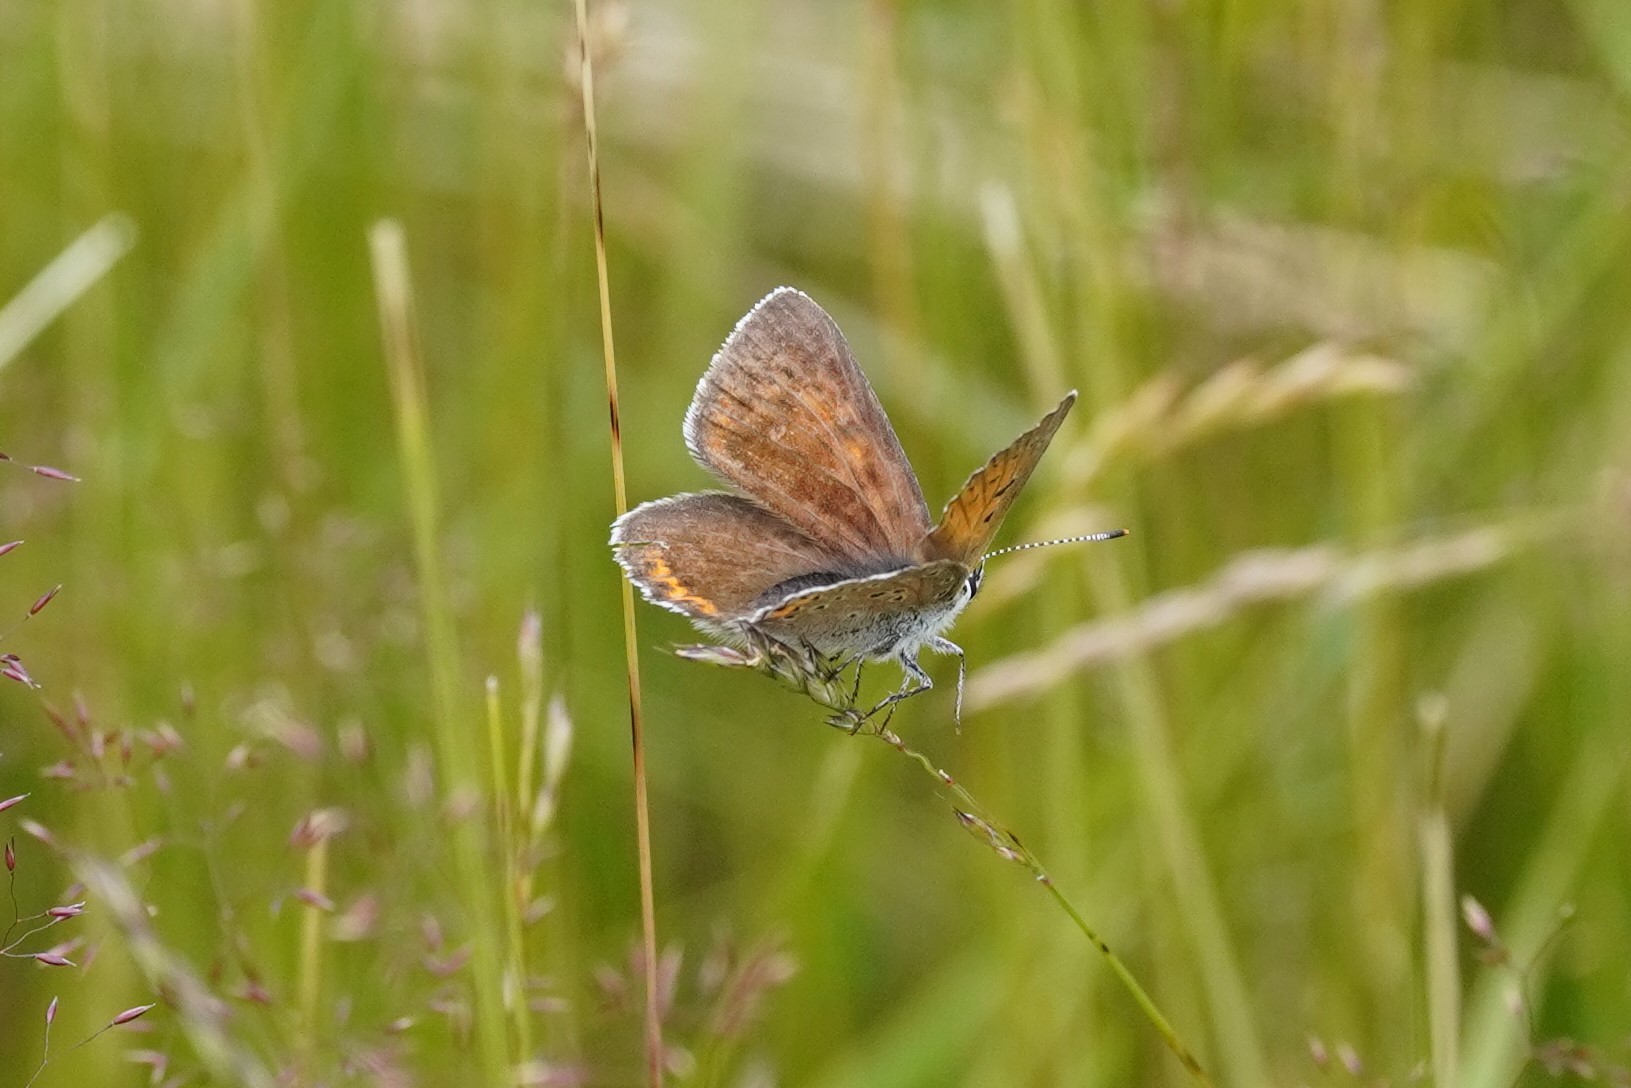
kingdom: Animalia
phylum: Arthropoda
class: Insecta
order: Lepidoptera
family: Lycaenidae
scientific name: Lycaenidae
